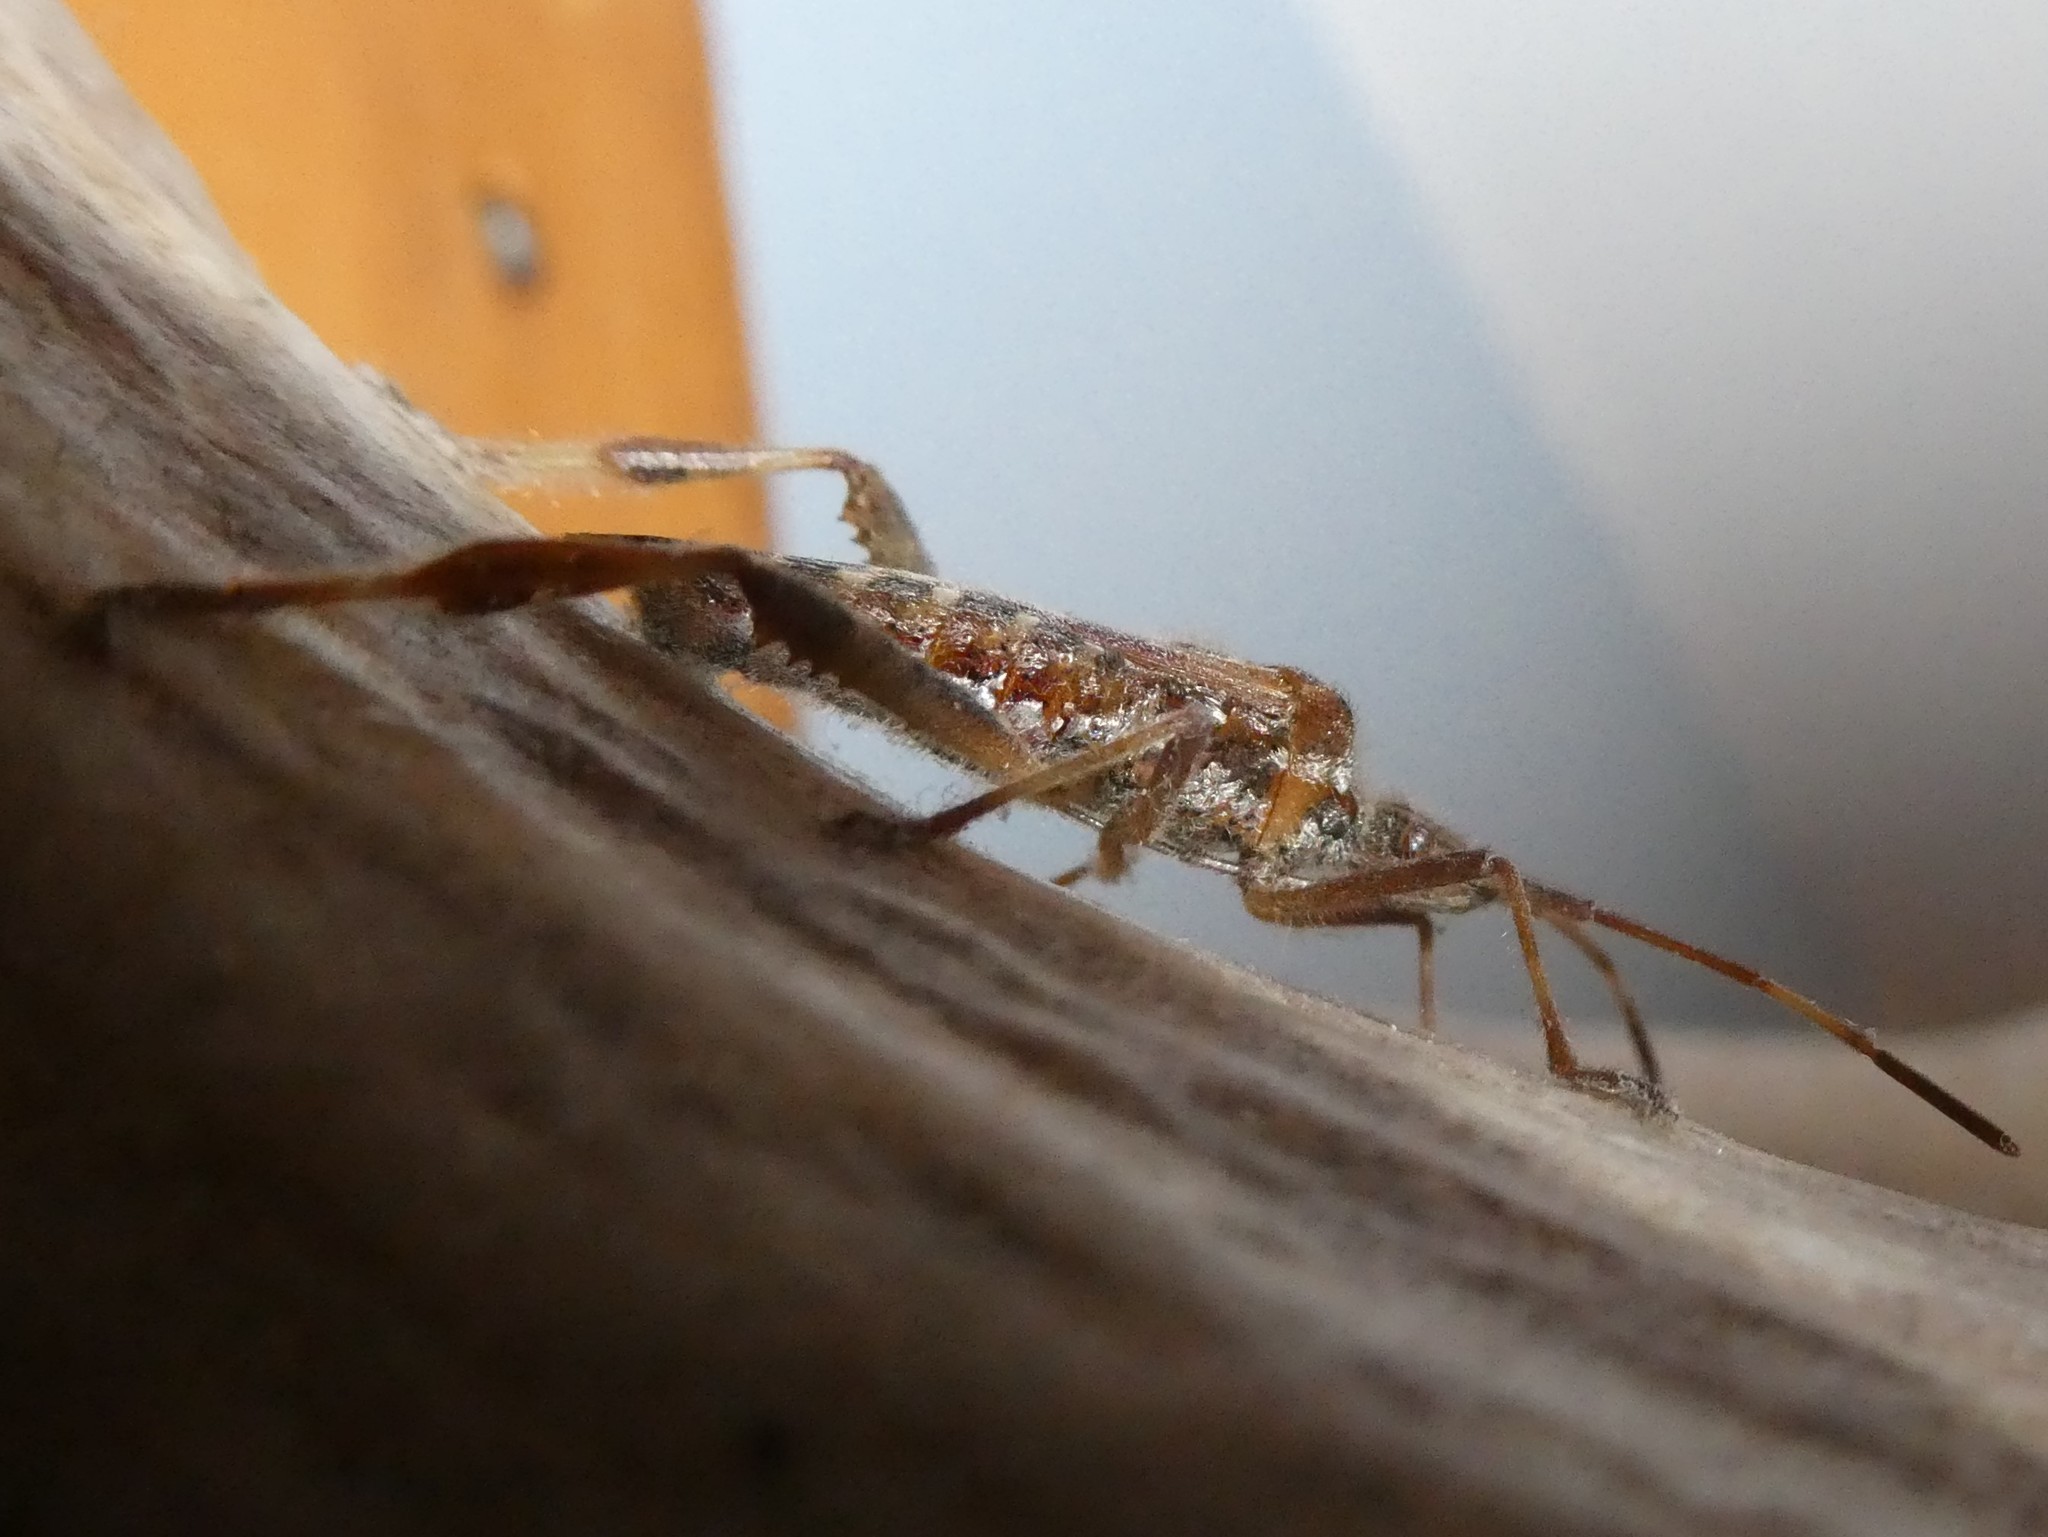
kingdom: Animalia
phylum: Arthropoda
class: Insecta
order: Hemiptera
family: Coreidae
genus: Leptoglossus
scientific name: Leptoglossus occidentalis
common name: Western conifer-seed bug
